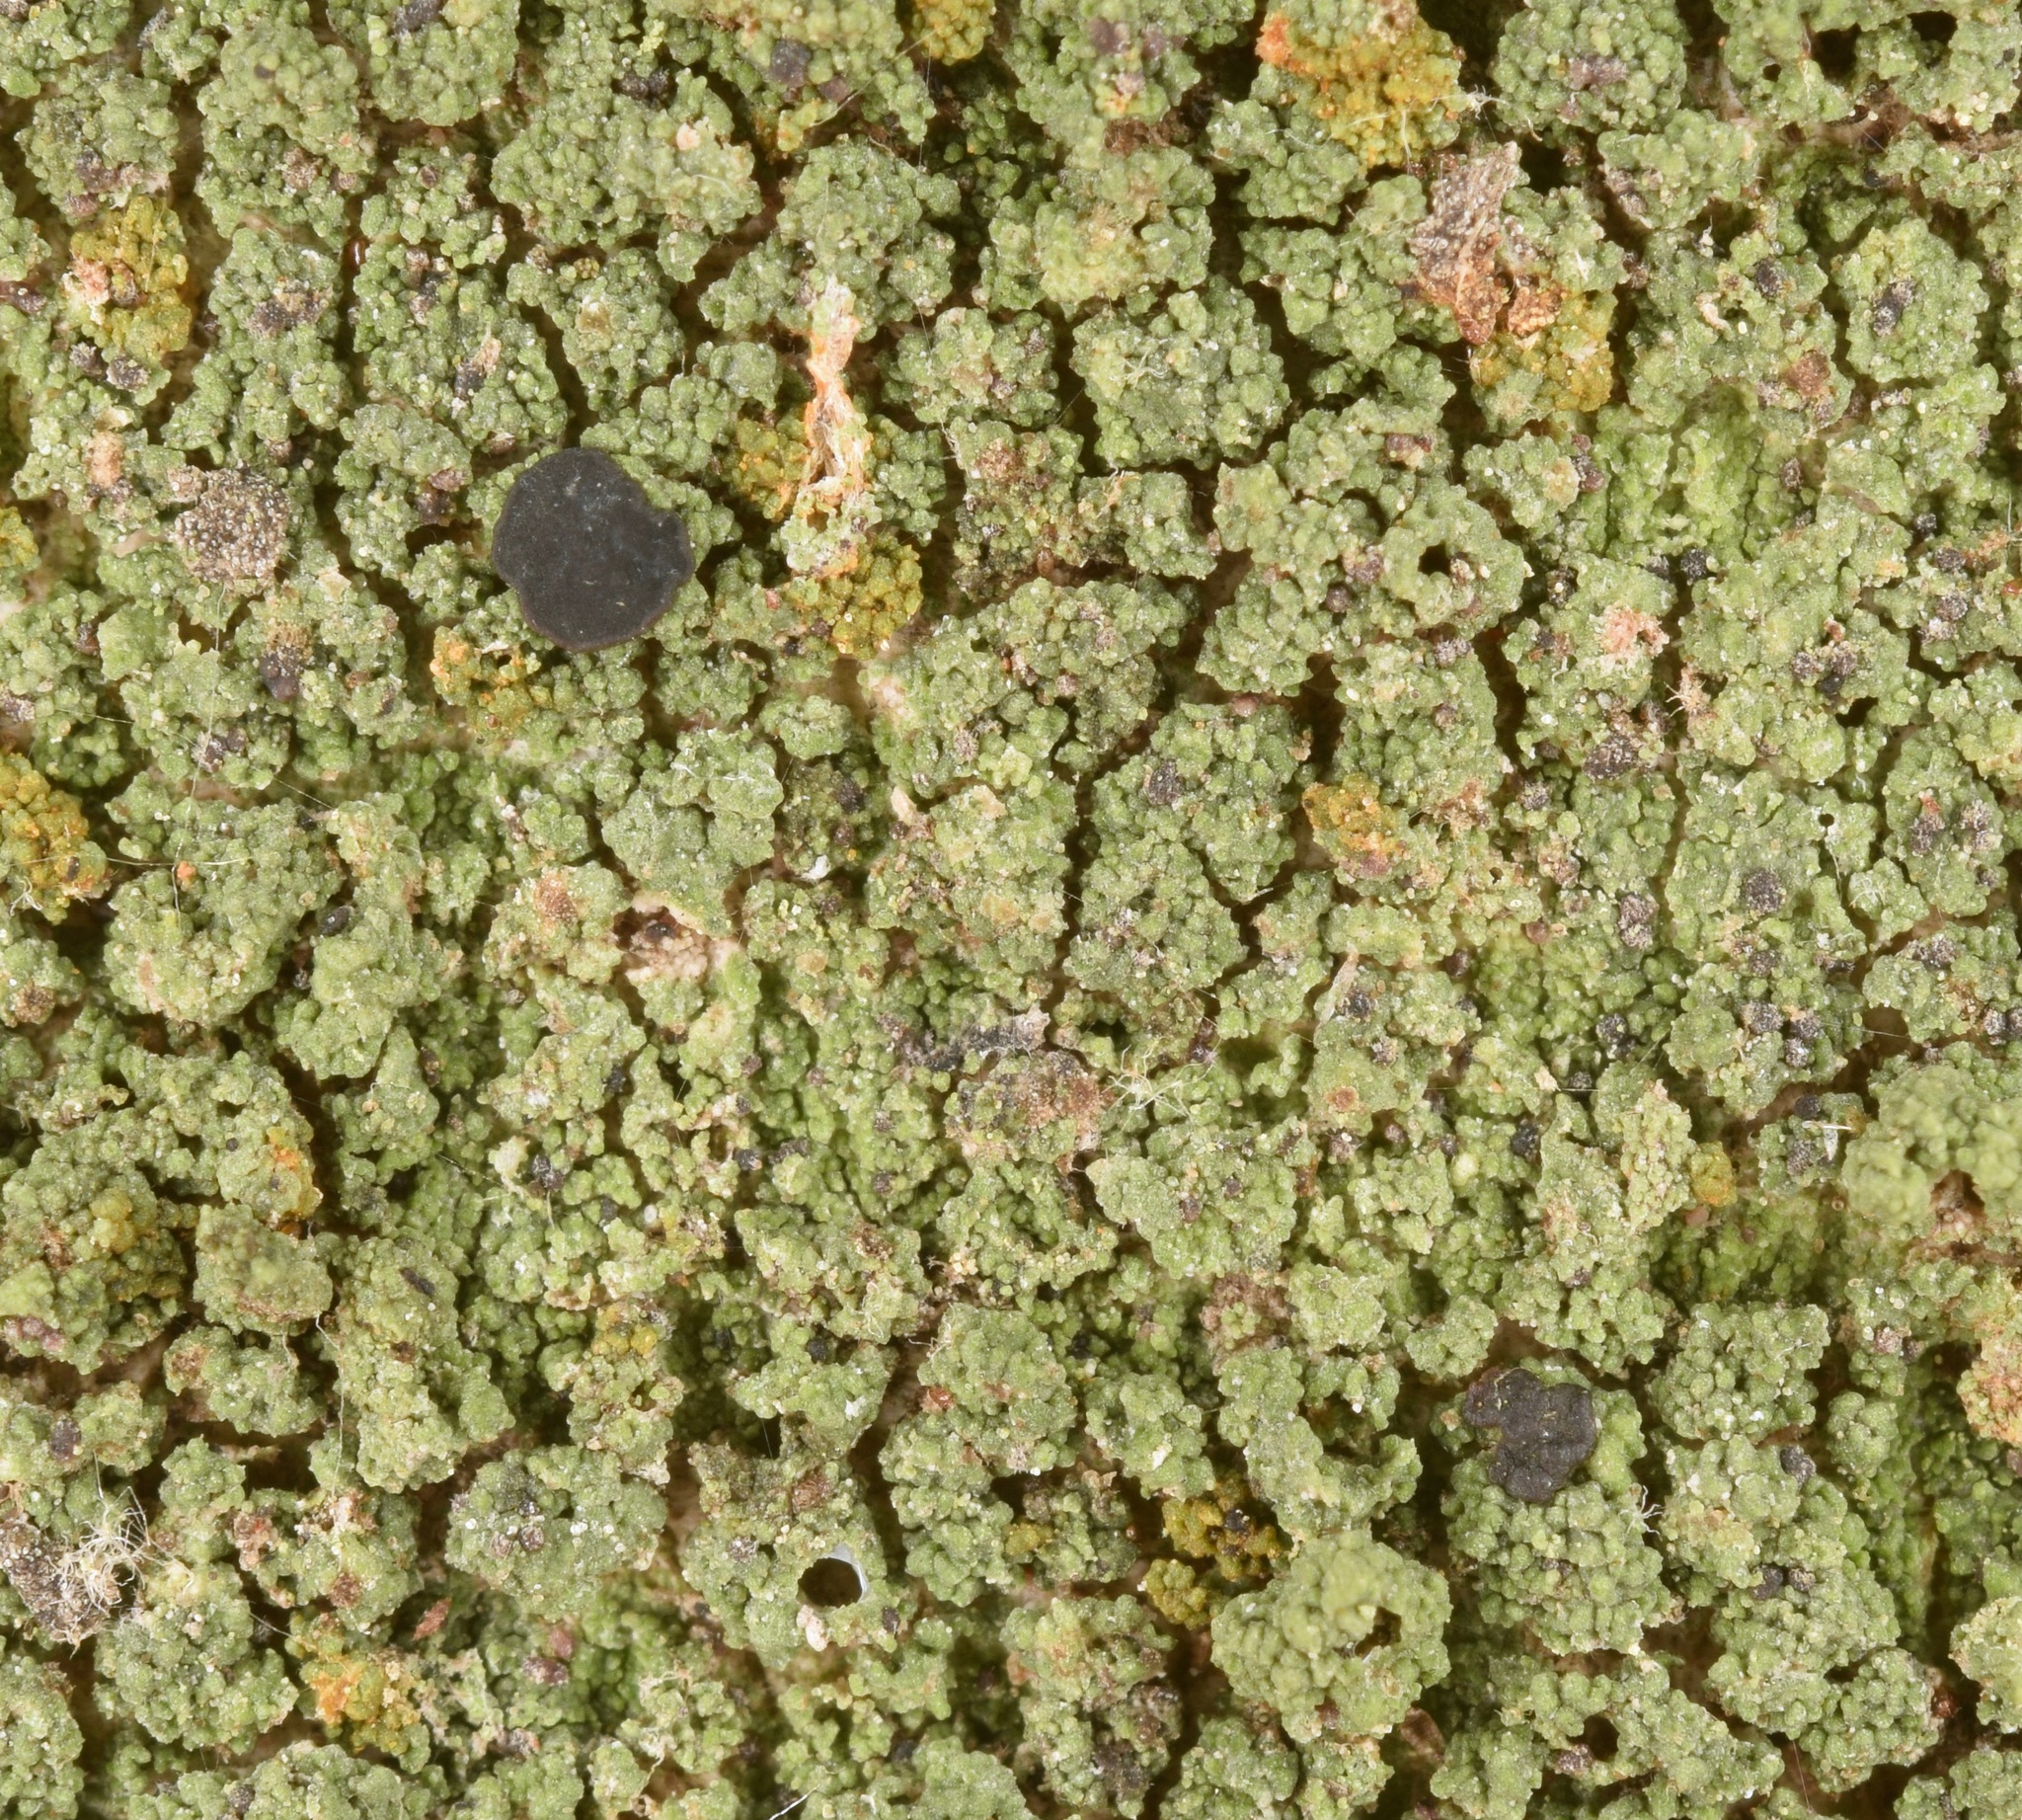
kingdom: Fungi
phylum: Ascomycota
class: Lecanoromycetes
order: Lecanorales
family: Ramalinaceae
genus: Bacidia
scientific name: Bacidia
